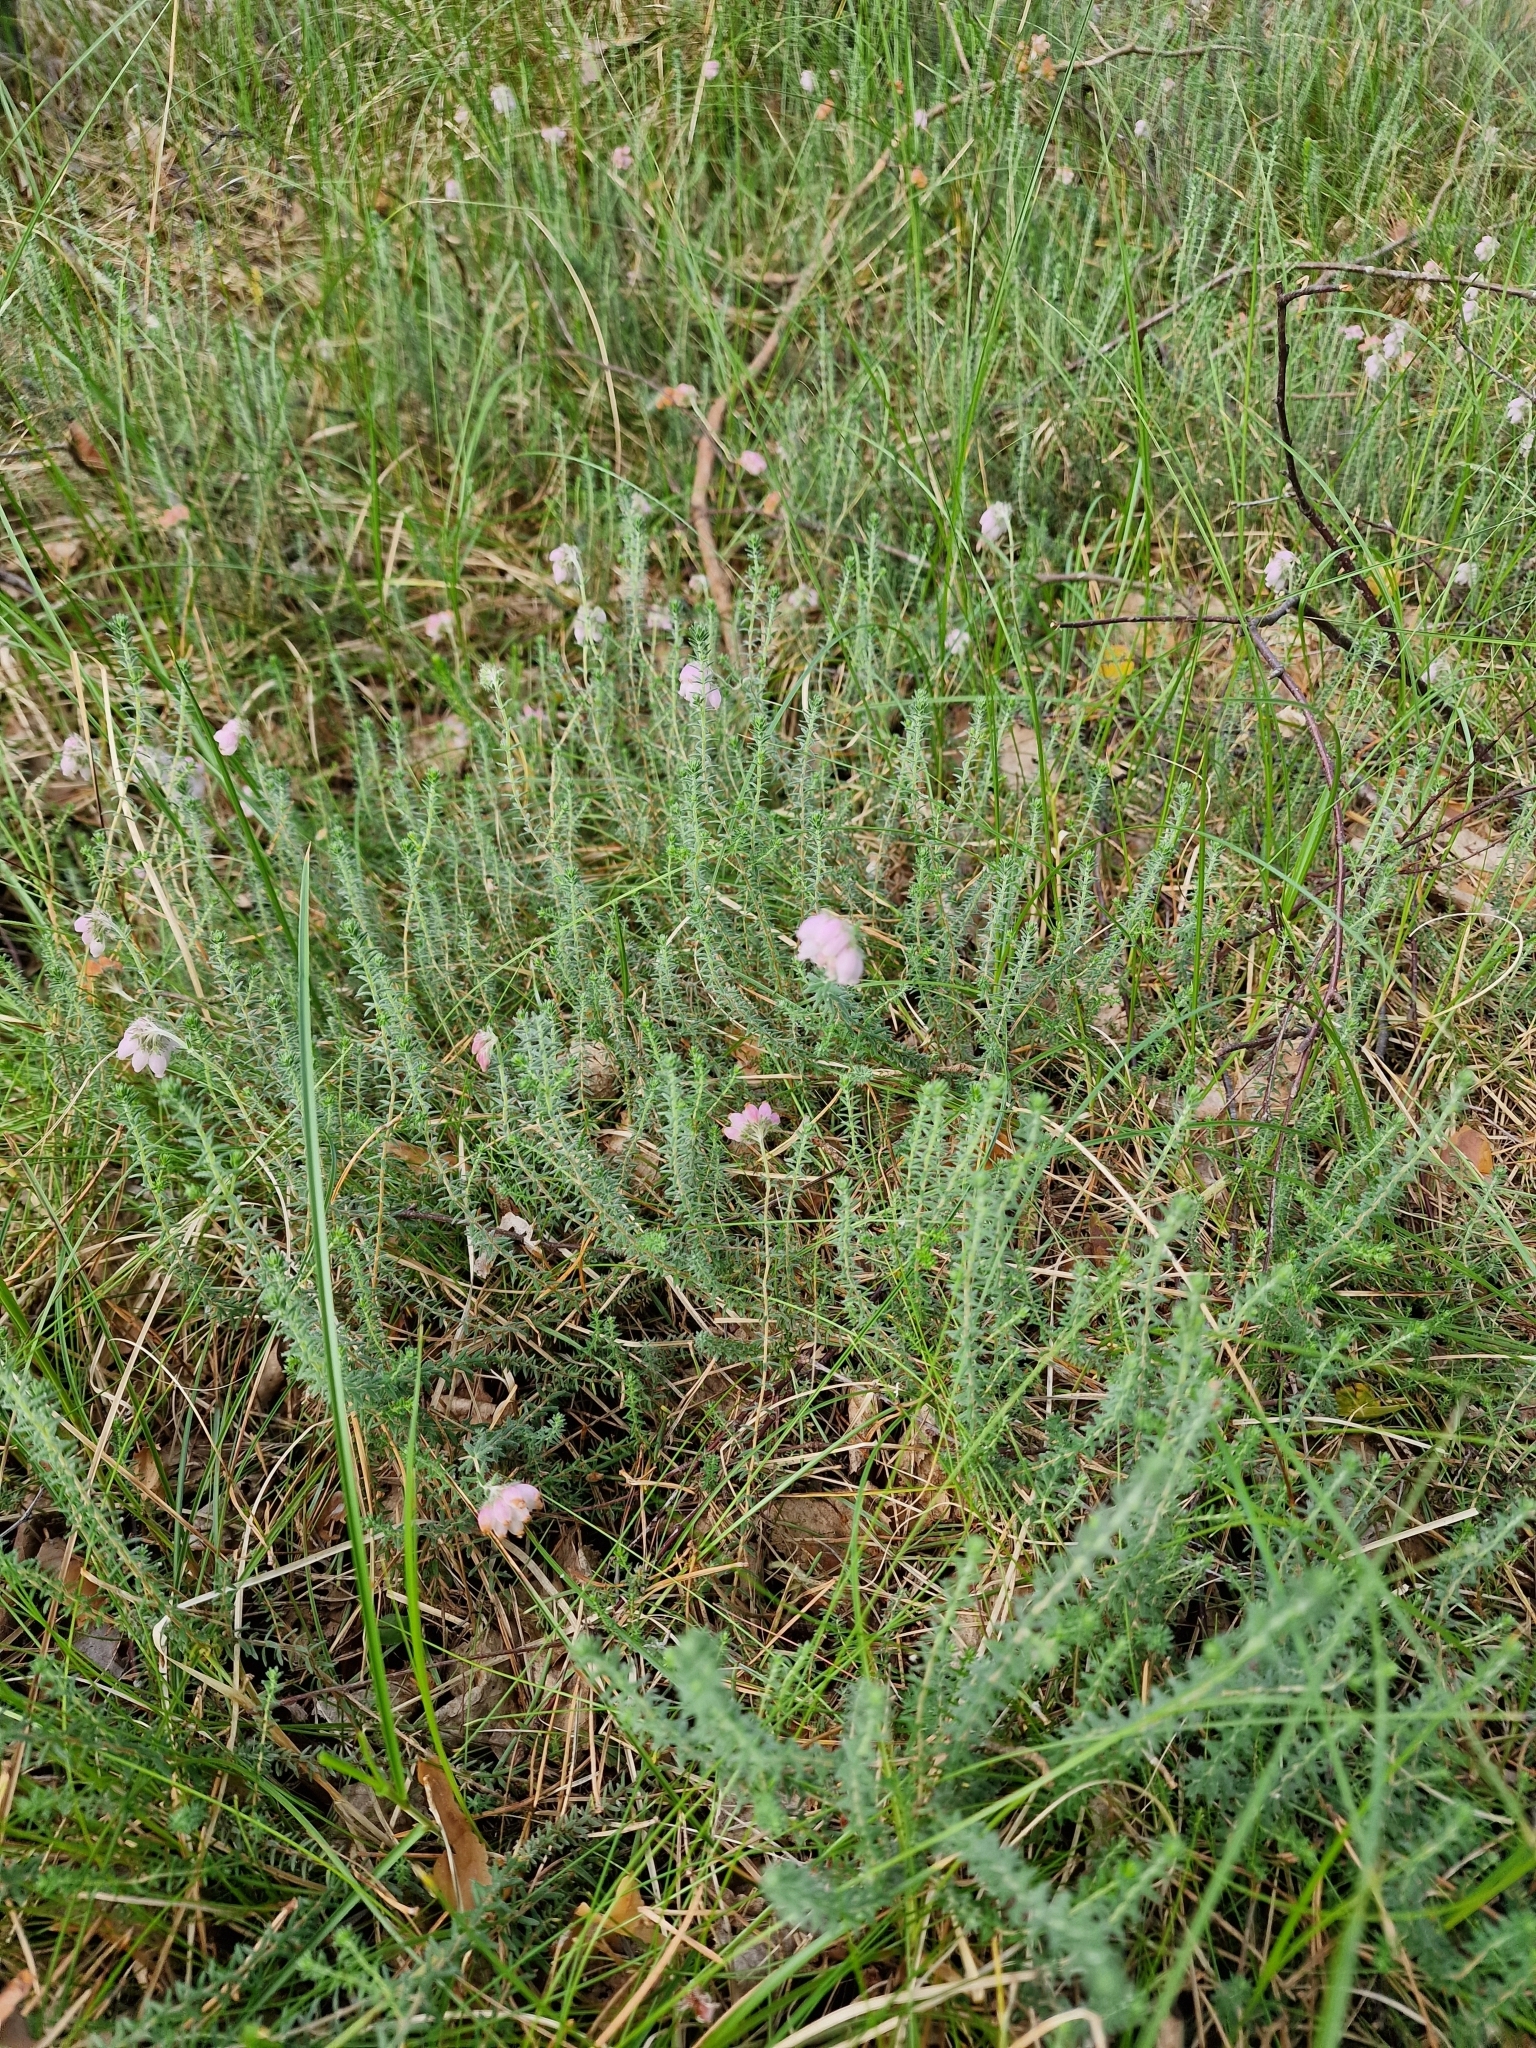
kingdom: Plantae
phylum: Tracheophyta
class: Magnoliopsida
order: Ericales
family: Ericaceae
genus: Erica
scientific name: Erica tetralix
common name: Cross-leaved heath
